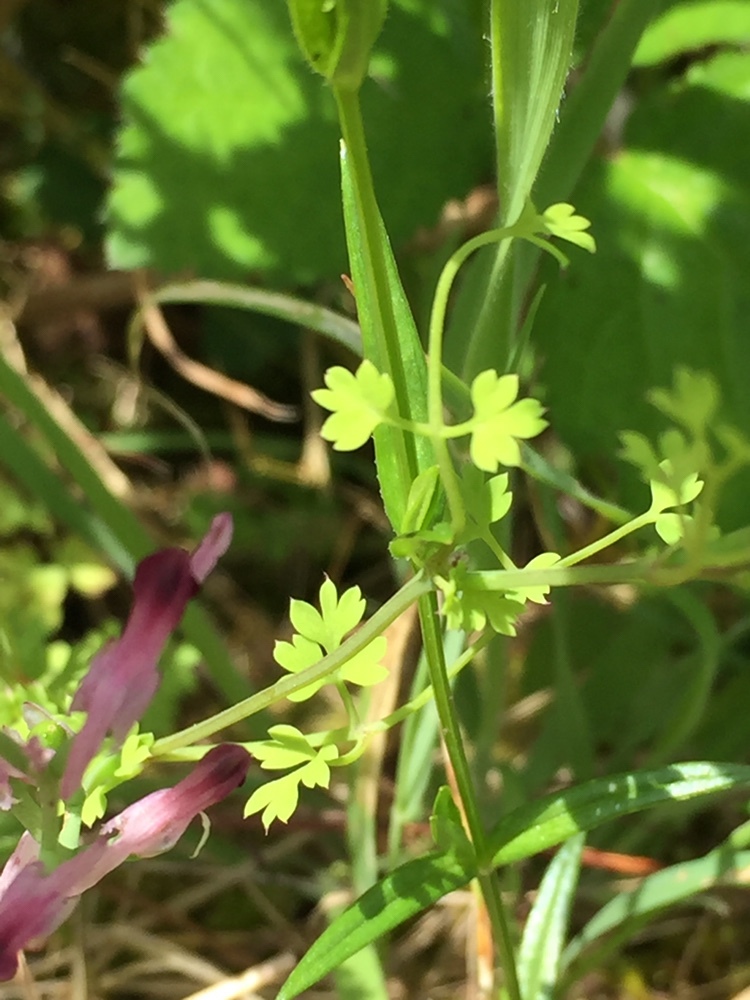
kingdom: Plantae
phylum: Tracheophyta
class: Magnoliopsida
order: Ranunculales
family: Papaveraceae
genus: Fumaria
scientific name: Fumaria muralis
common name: Common ramping-fumitory
